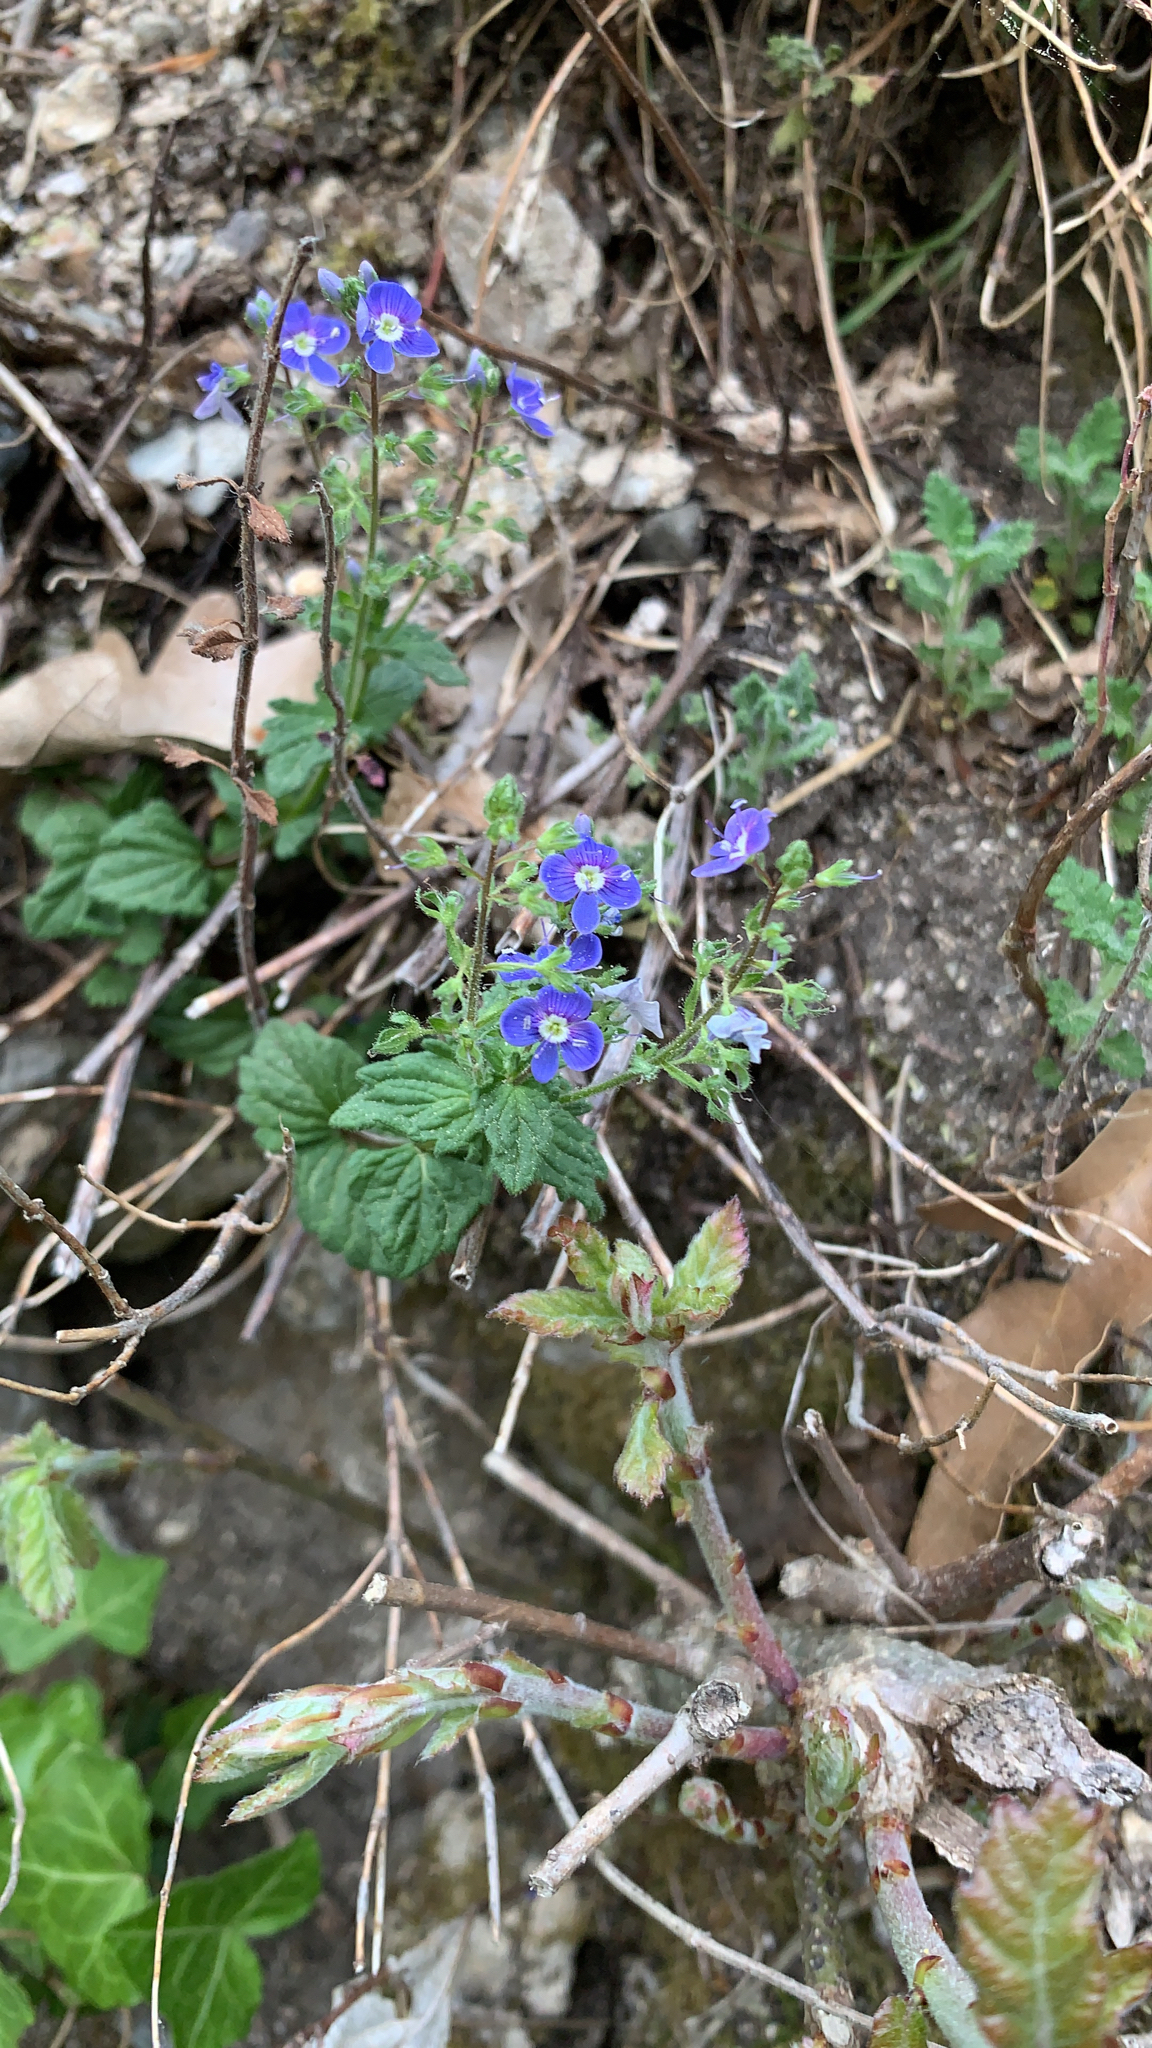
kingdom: Plantae
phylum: Tracheophyta
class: Magnoliopsida
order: Lamiales
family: Plantaginaceae
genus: Veronica
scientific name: Veronica chamaedrys
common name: Germander speedwell
